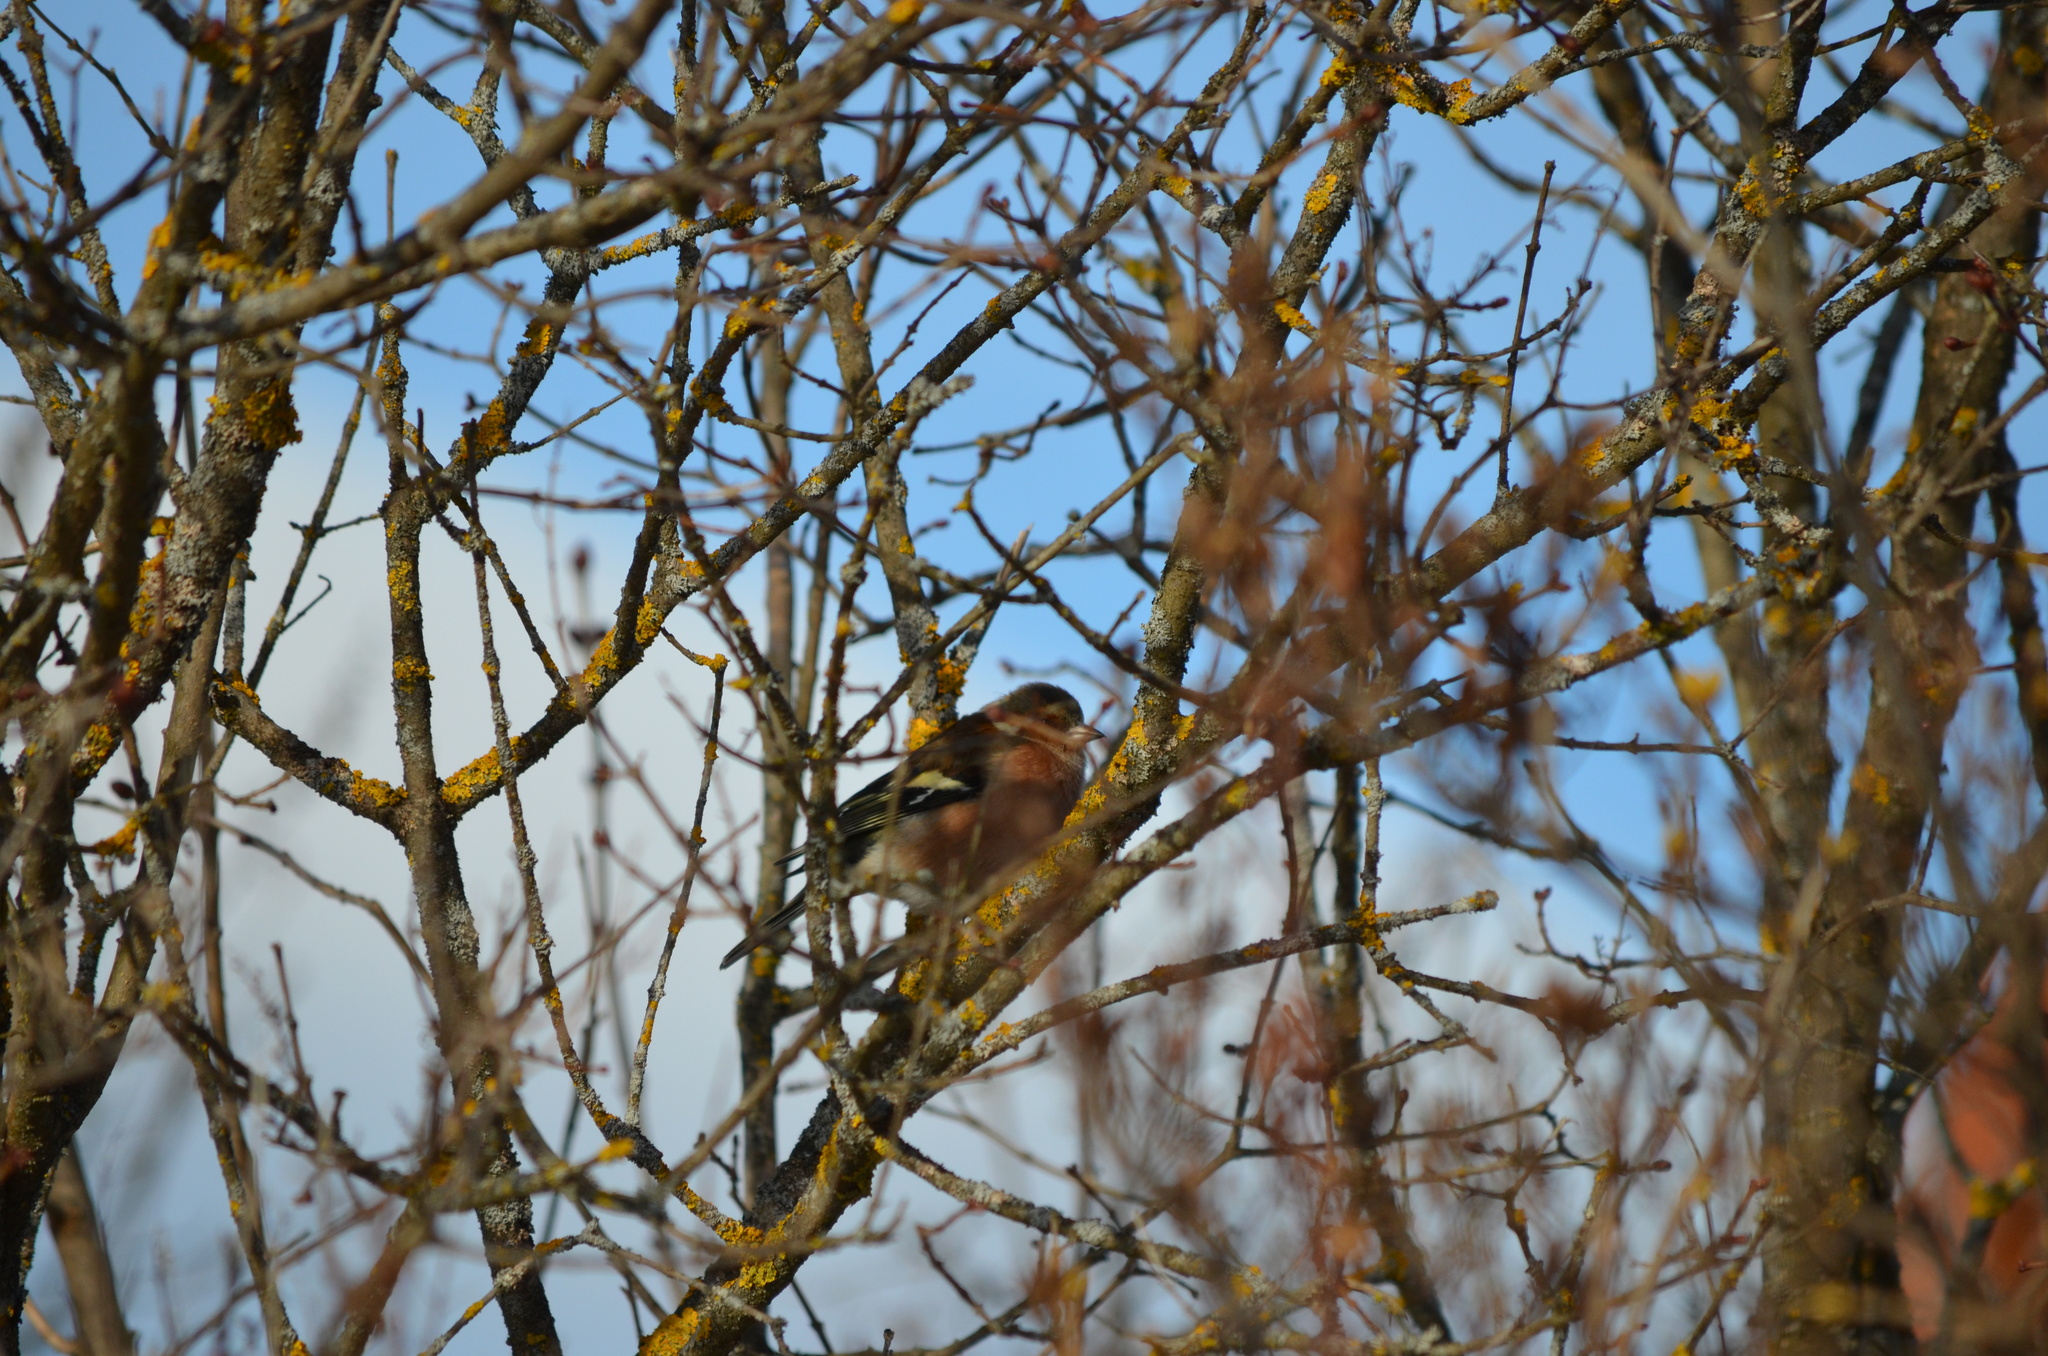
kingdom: Animalia
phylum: Chordata
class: Aves
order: Passeriformes
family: Fringillidae
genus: Fringilla
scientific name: Fringilla coelebs
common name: Common chaffinch
